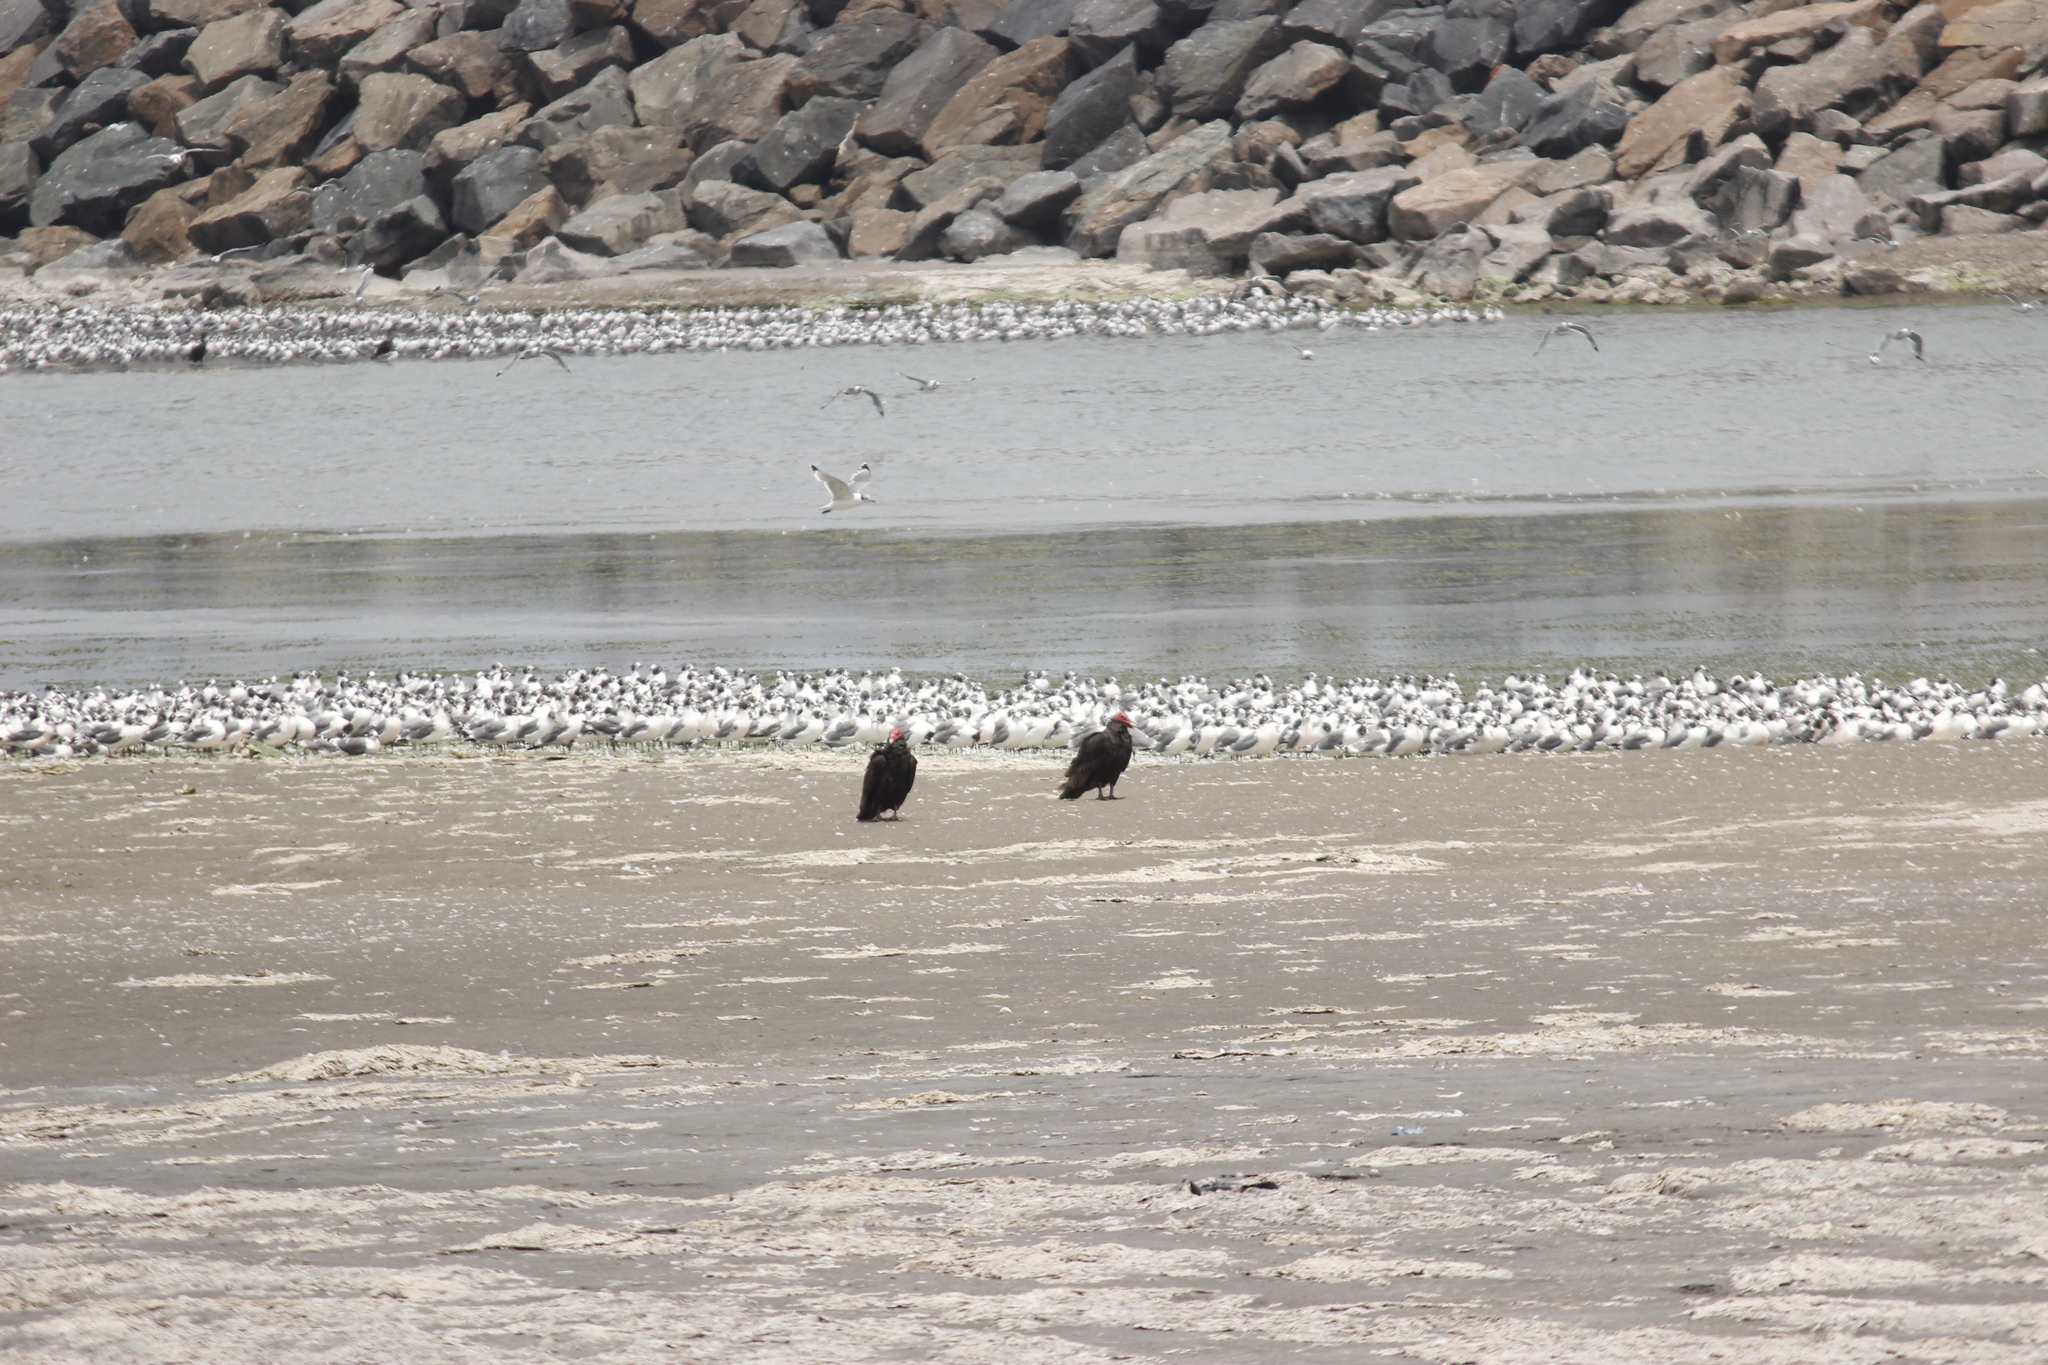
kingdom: Animalia
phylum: Chordata
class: Aves
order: Accipitriformes
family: Cathartidae
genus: Cathartes
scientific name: Cathartes aura
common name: Turkey vulture
